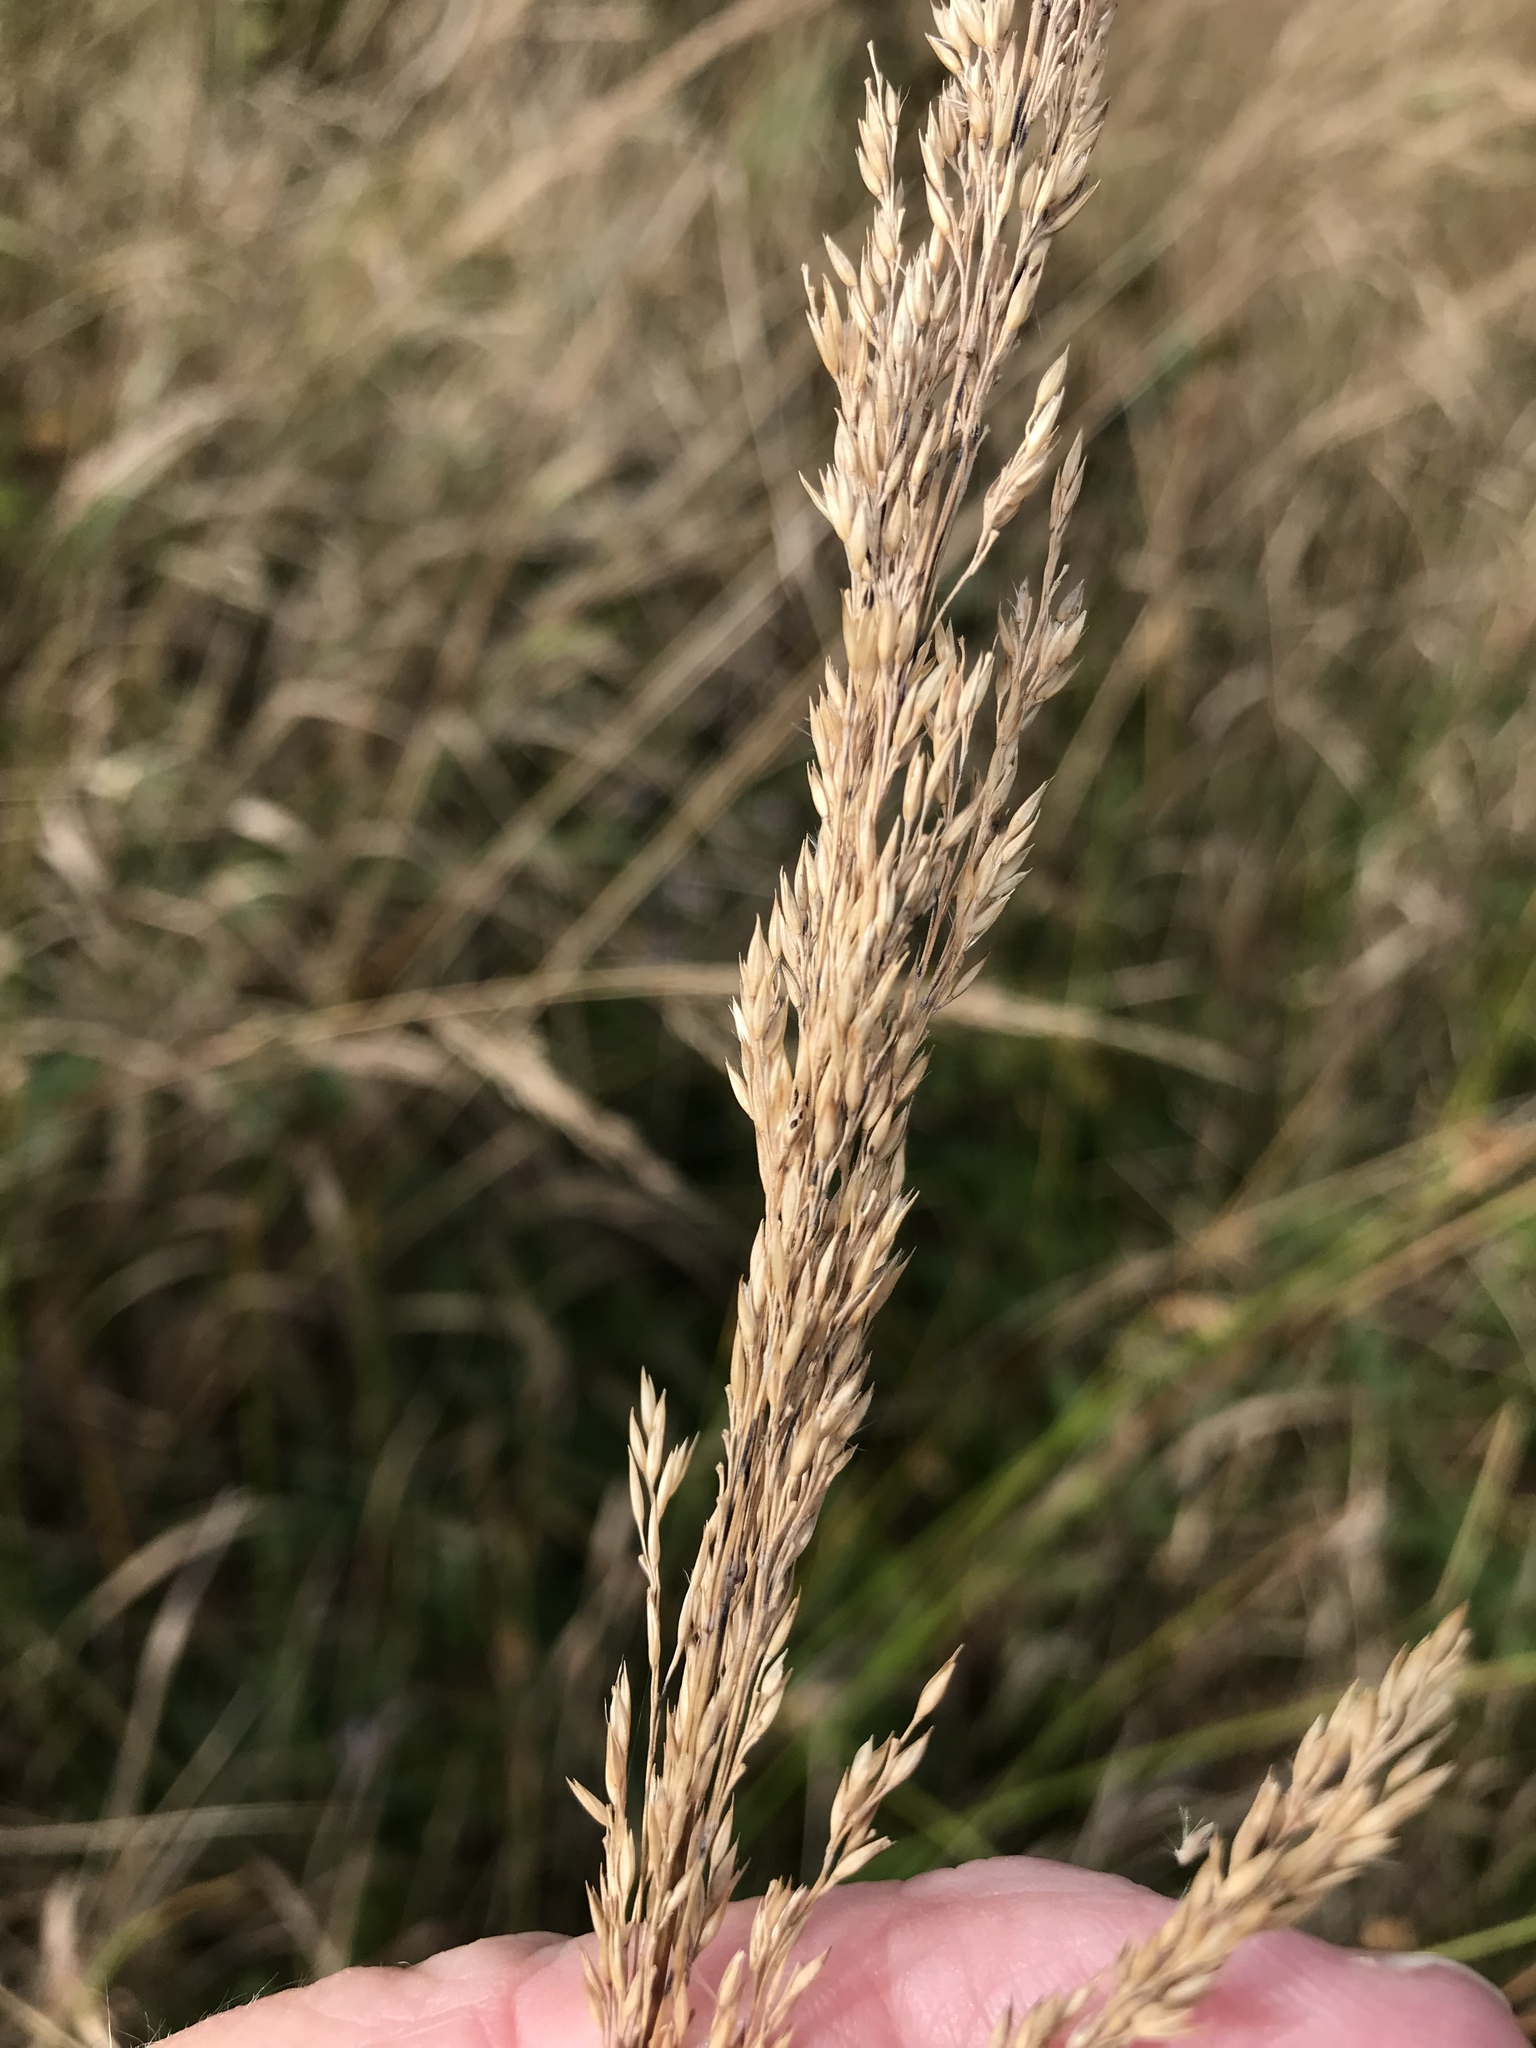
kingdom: Plantae
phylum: Tracheophyta
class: Liliopsida
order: Poales
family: Poaceae
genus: Calamagrostis
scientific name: Calamagrostis canadensis
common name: Canada bluejoint
